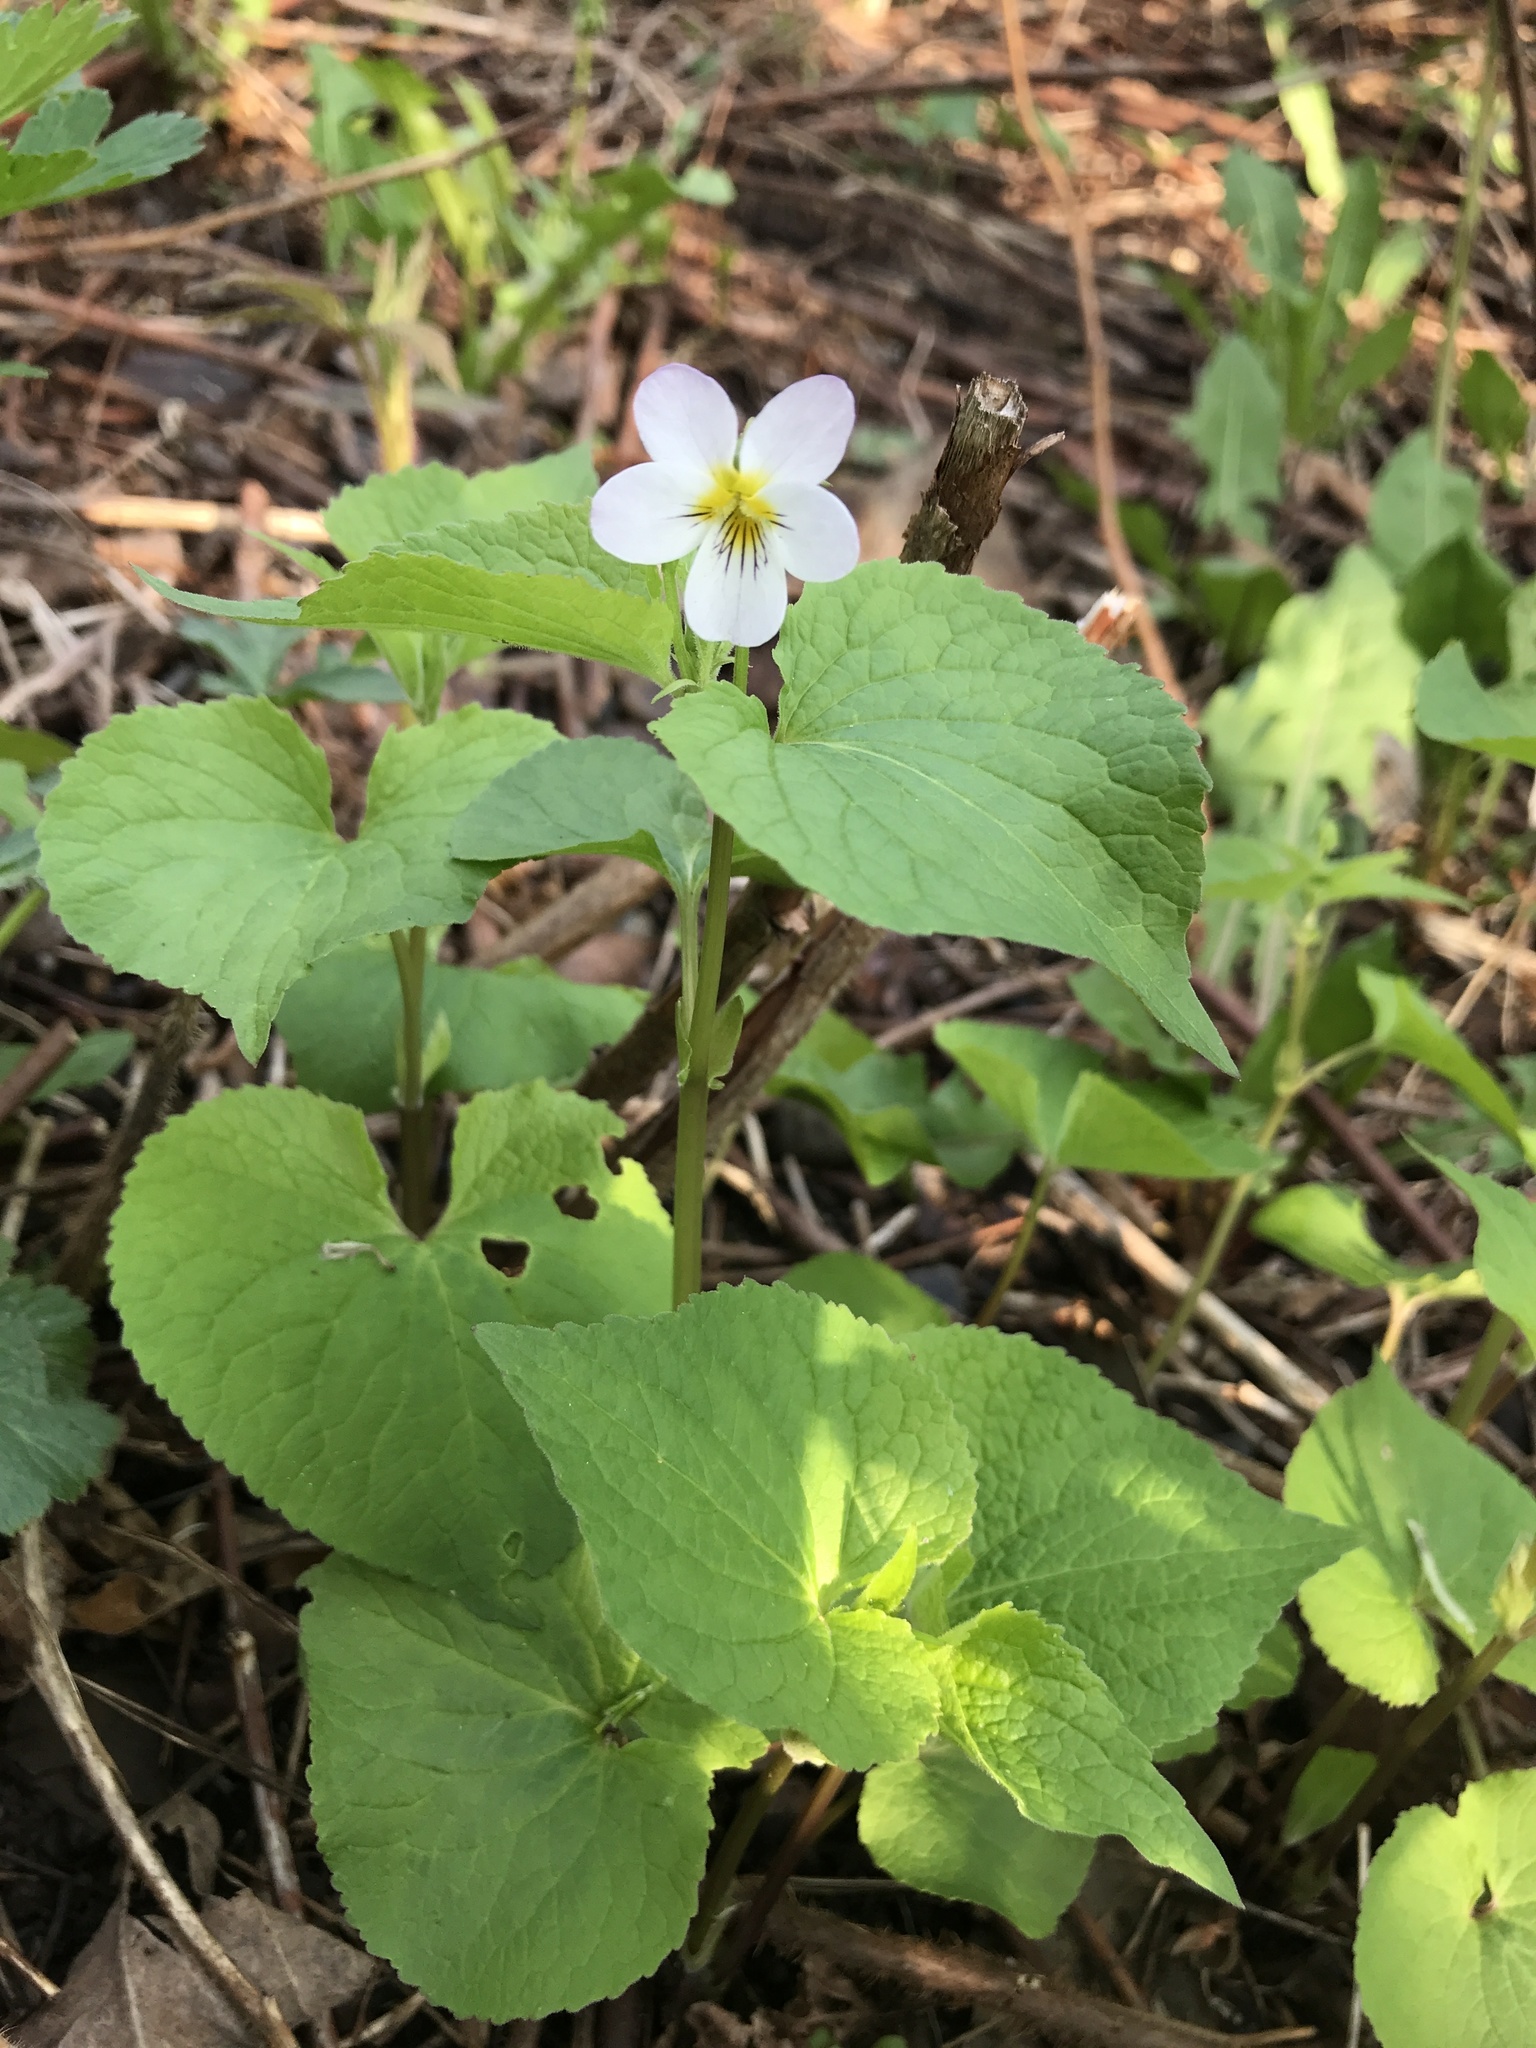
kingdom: Plantae
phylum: Tracheophyta
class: Magnoliopsida
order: Malpighiales
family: Violaceae
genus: Viola
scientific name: Viola canadensis
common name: Canada violet
